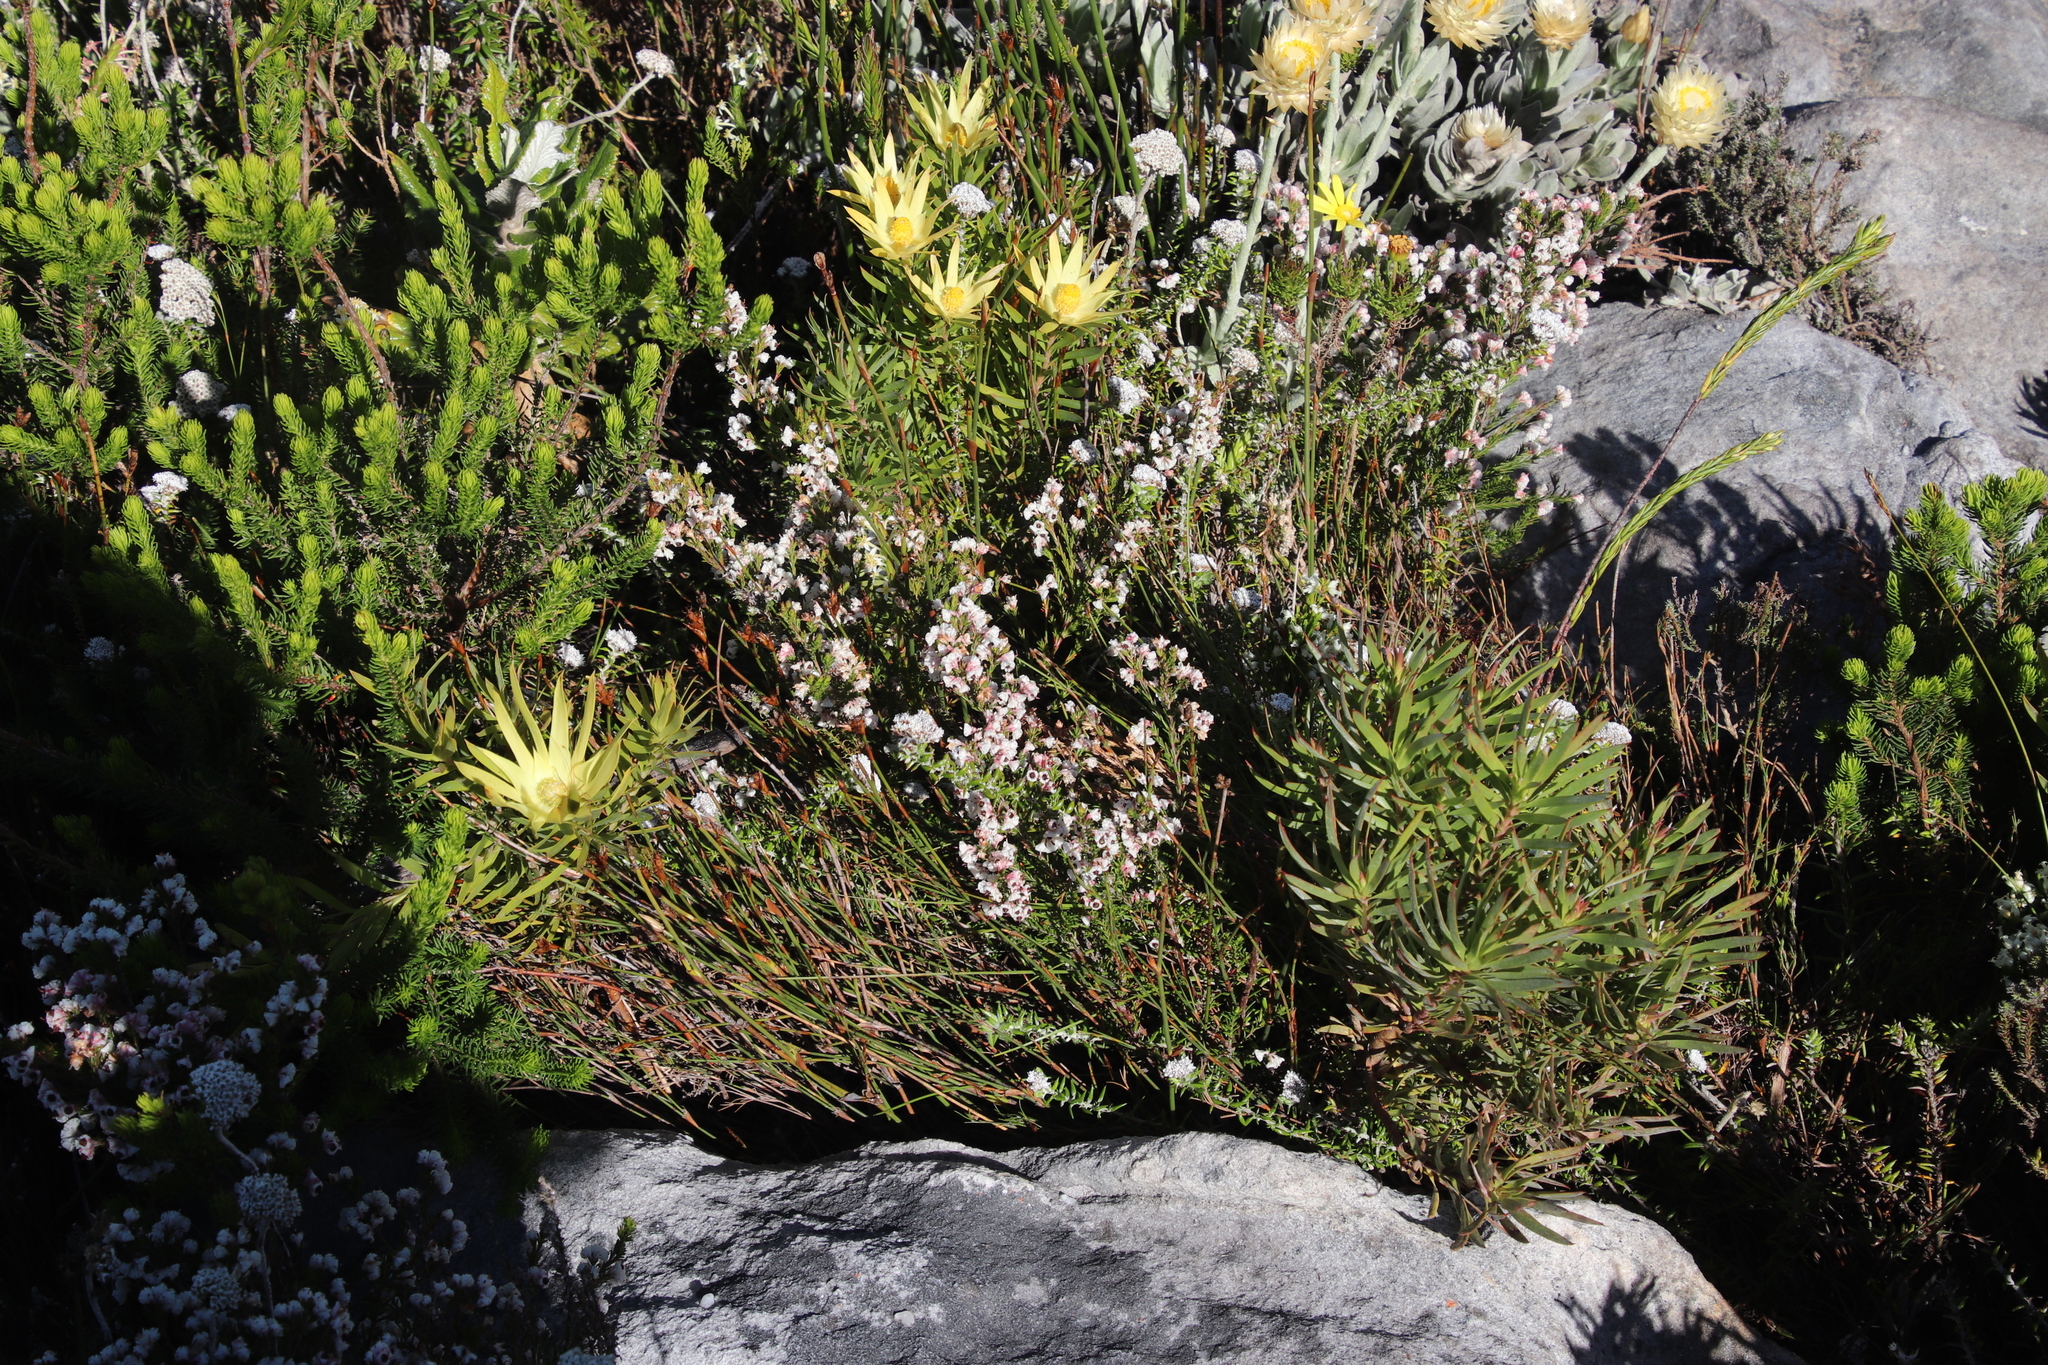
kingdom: Plantae
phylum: Tracheophyta
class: Magnoliopsida
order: Ericales
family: Ericaceae
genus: Erica
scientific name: Erica calycina
